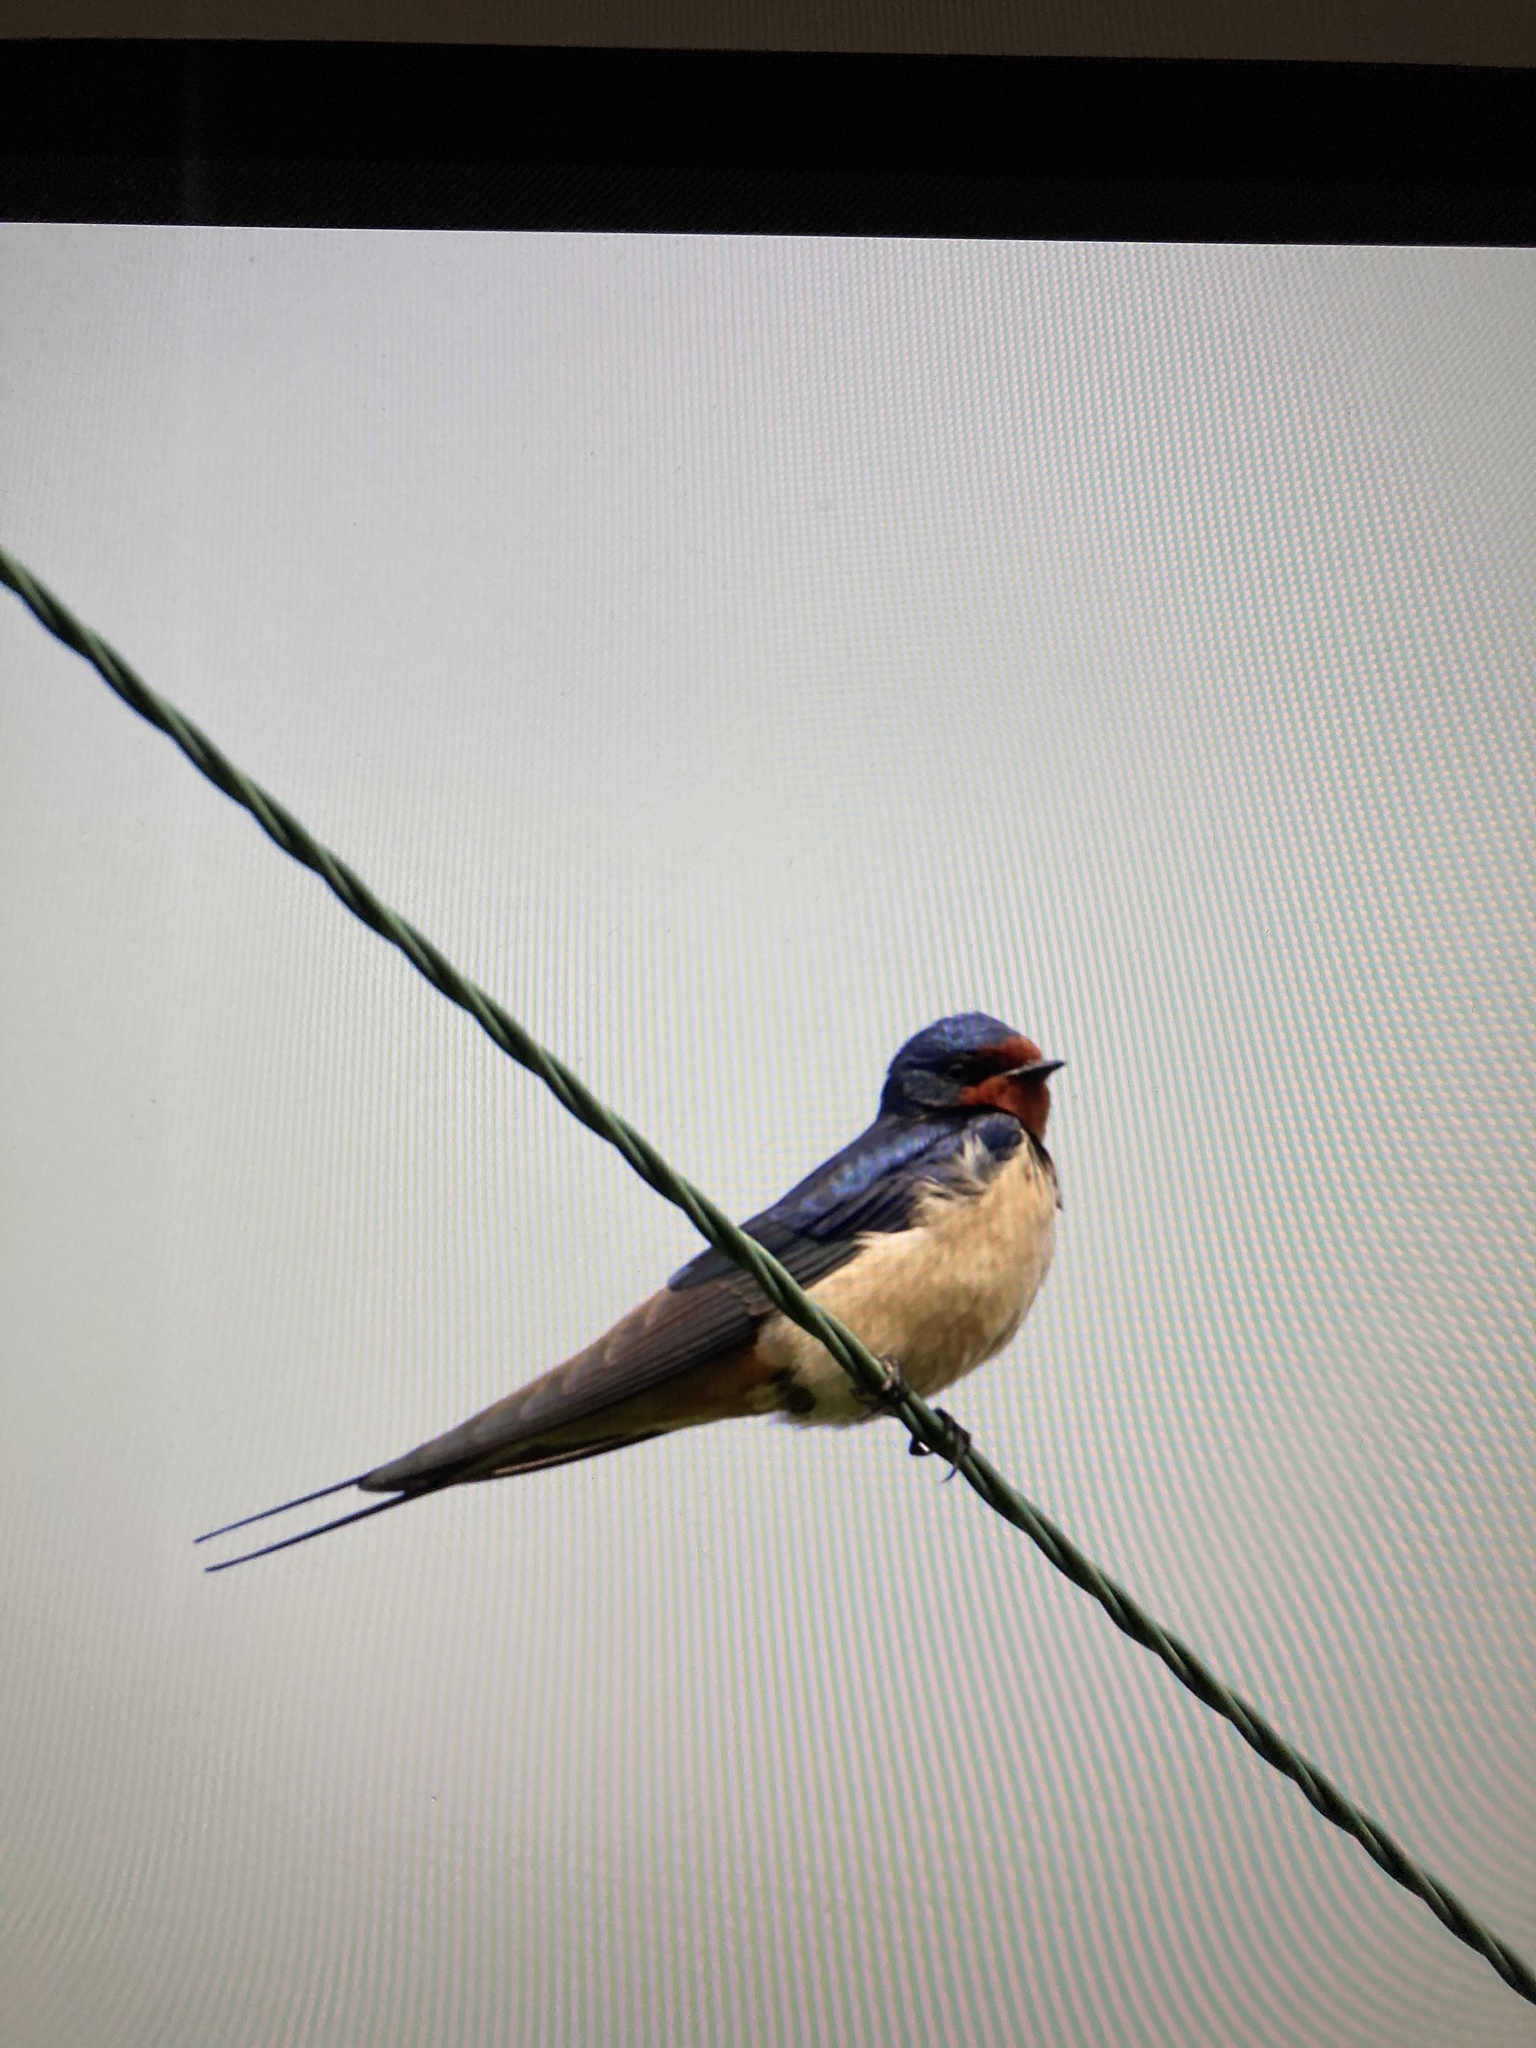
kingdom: Animalia
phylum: Chordata
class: Aves
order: Passeriformes
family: Hirundinidae
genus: Hirundo
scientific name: Hirundo rustica
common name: Barn swallow
